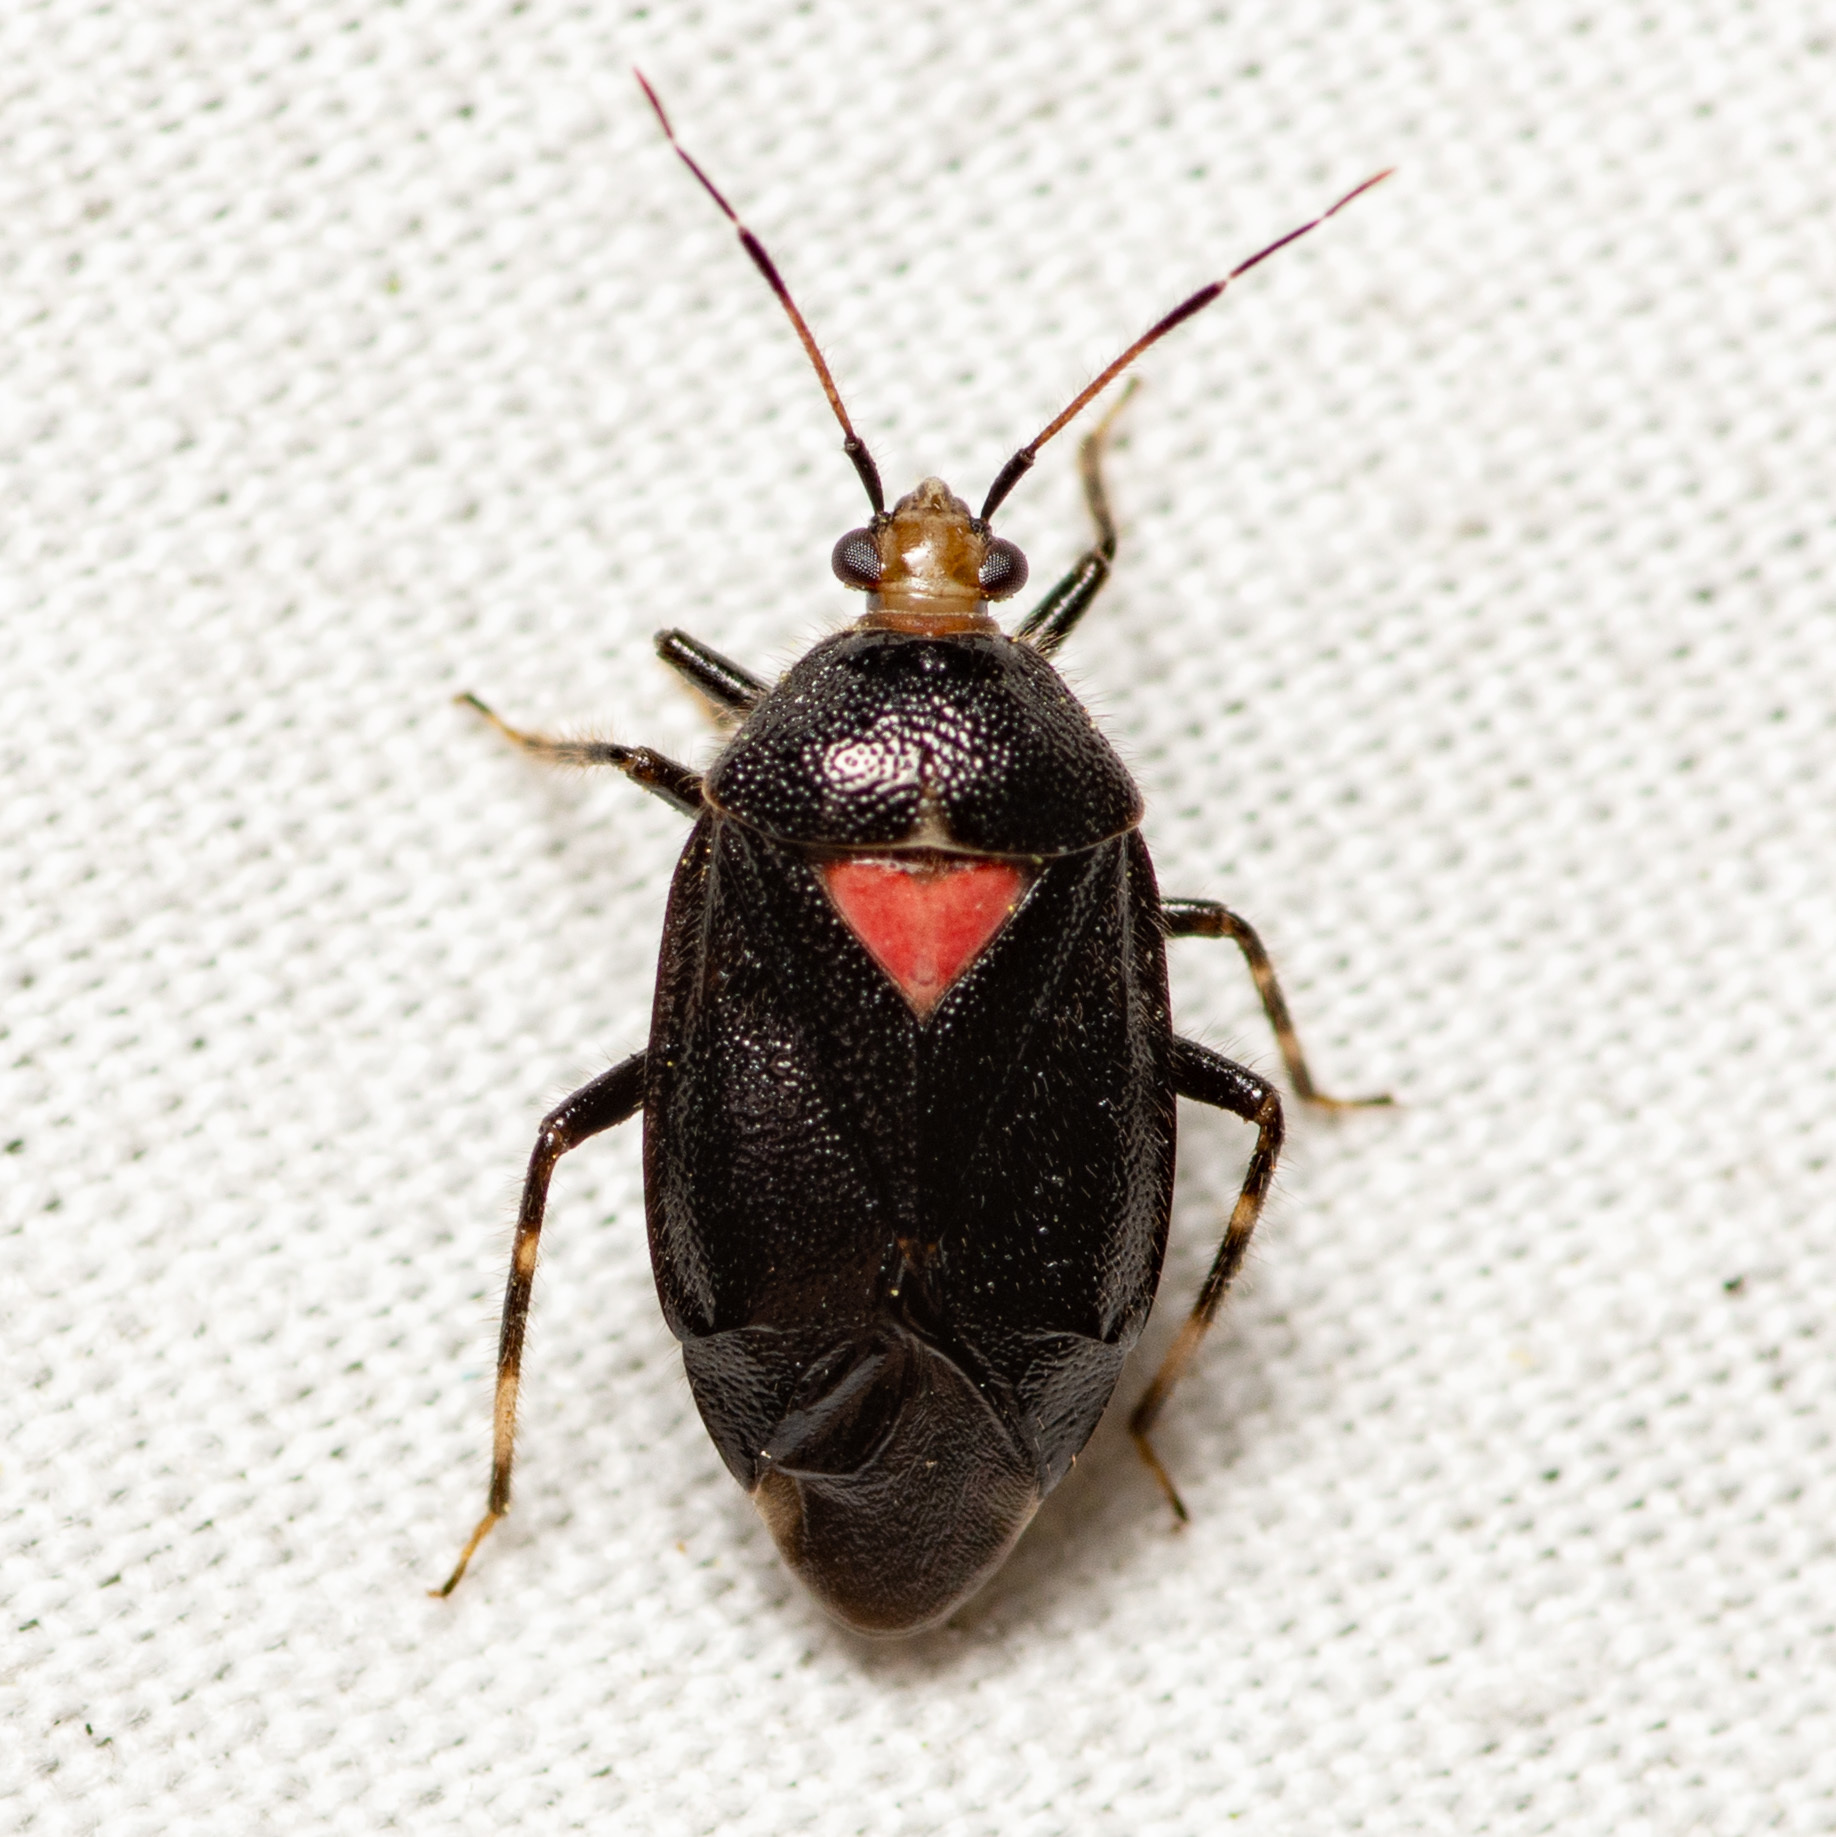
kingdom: Animalia
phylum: Arthropoda
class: Insecta
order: Hemiptera
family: Miridae
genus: Deraeocoris
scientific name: Deraeocoris sayi
